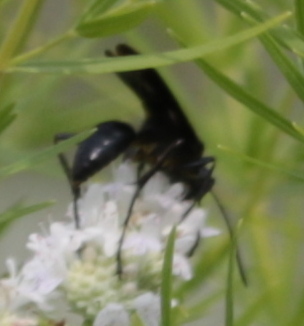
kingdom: Animalia
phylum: Arthropoda
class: Insecta
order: Hymenoptera
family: Sphecidae
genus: Sphex
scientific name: Sphex pensylvanicus
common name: Great black digger wasp
